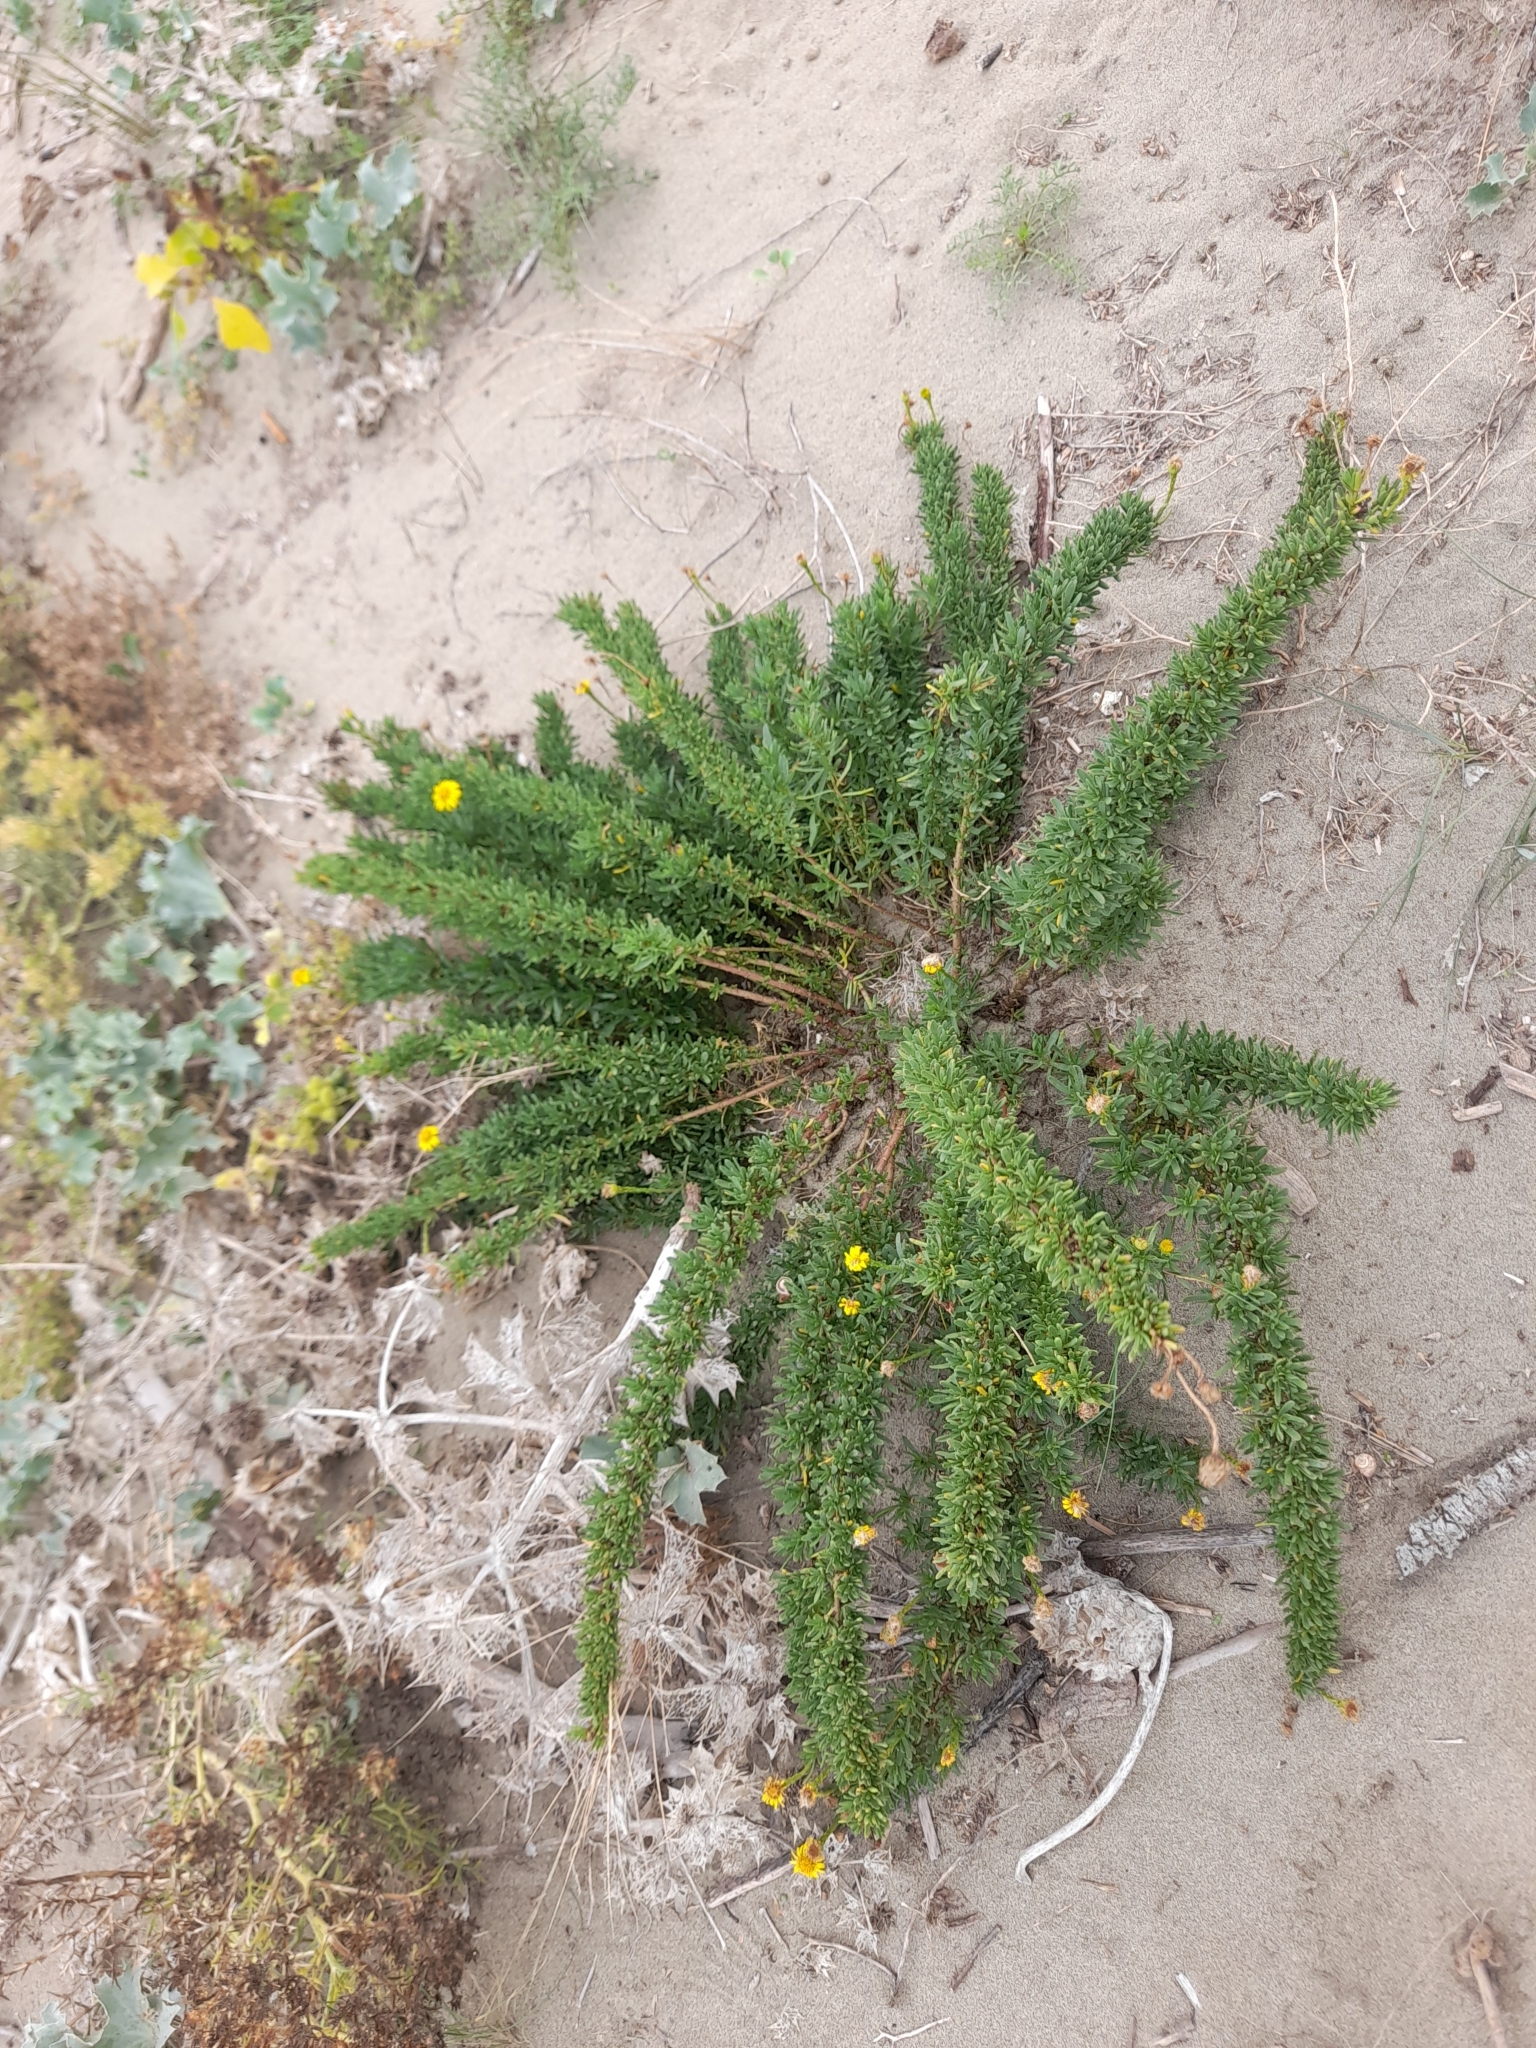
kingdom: Plantae
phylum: Tracheophyta
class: Magnoliopsida
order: Asterales
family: Asteraceae
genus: Limbarda
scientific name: Limbarda crithmoides
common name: Golden samphire
